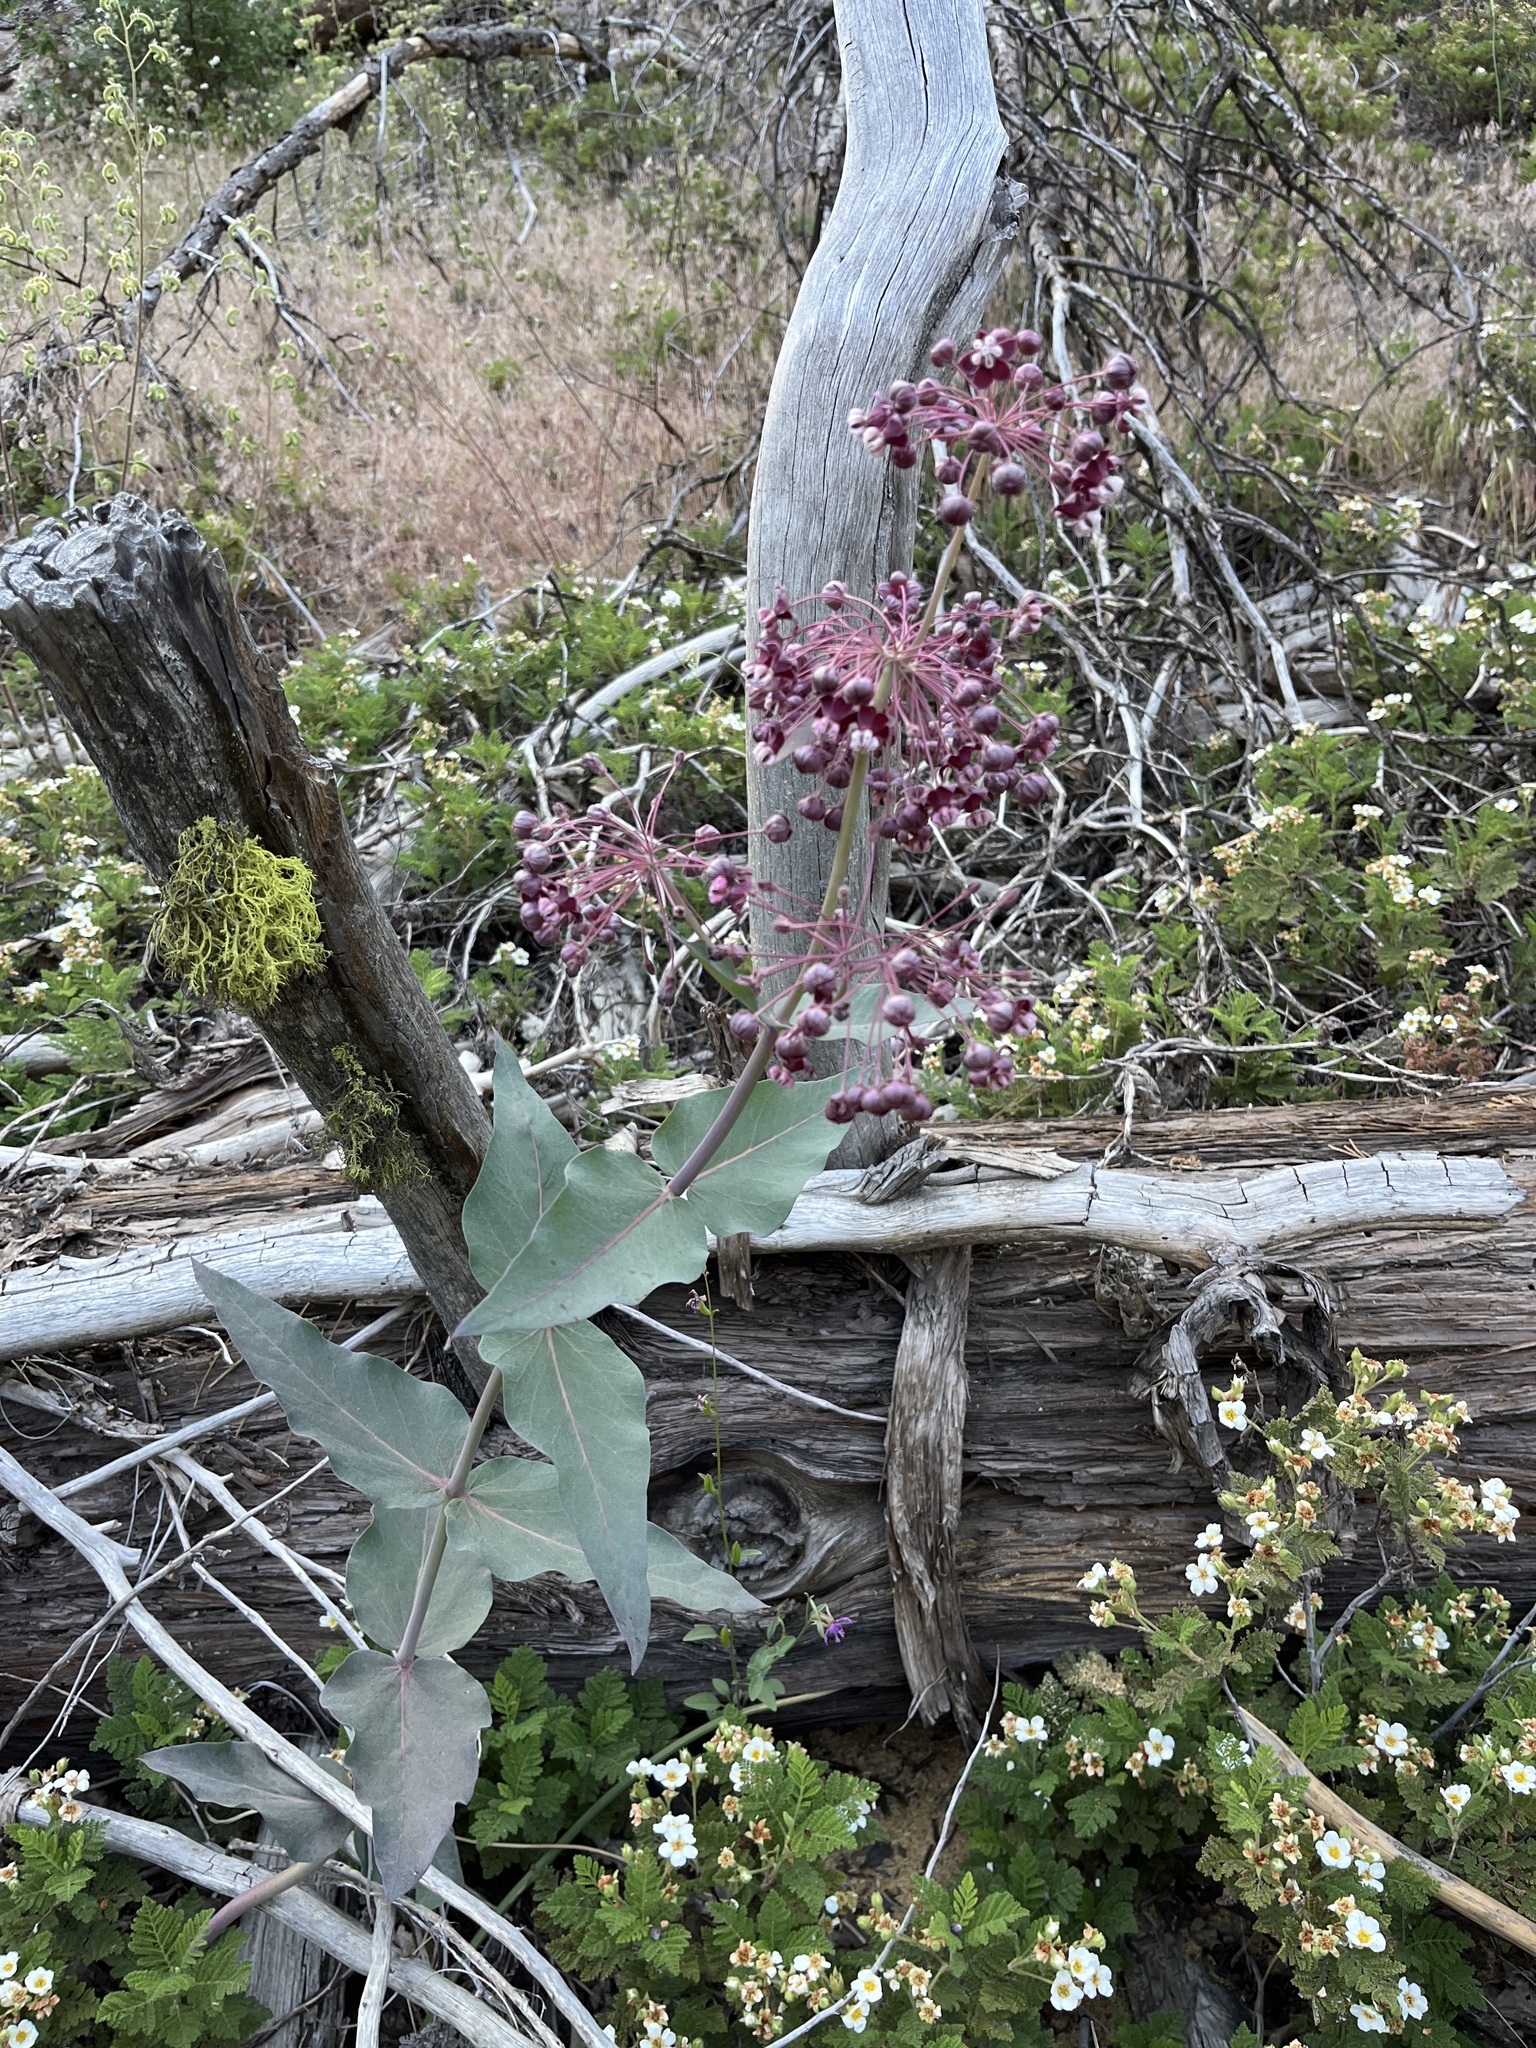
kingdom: Plantae
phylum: Tracheophyta
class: Magnoliopsida
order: Gentianales
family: Apocynaceae
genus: Asclepias
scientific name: Asclepias cordifolia
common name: Purple milkweed
